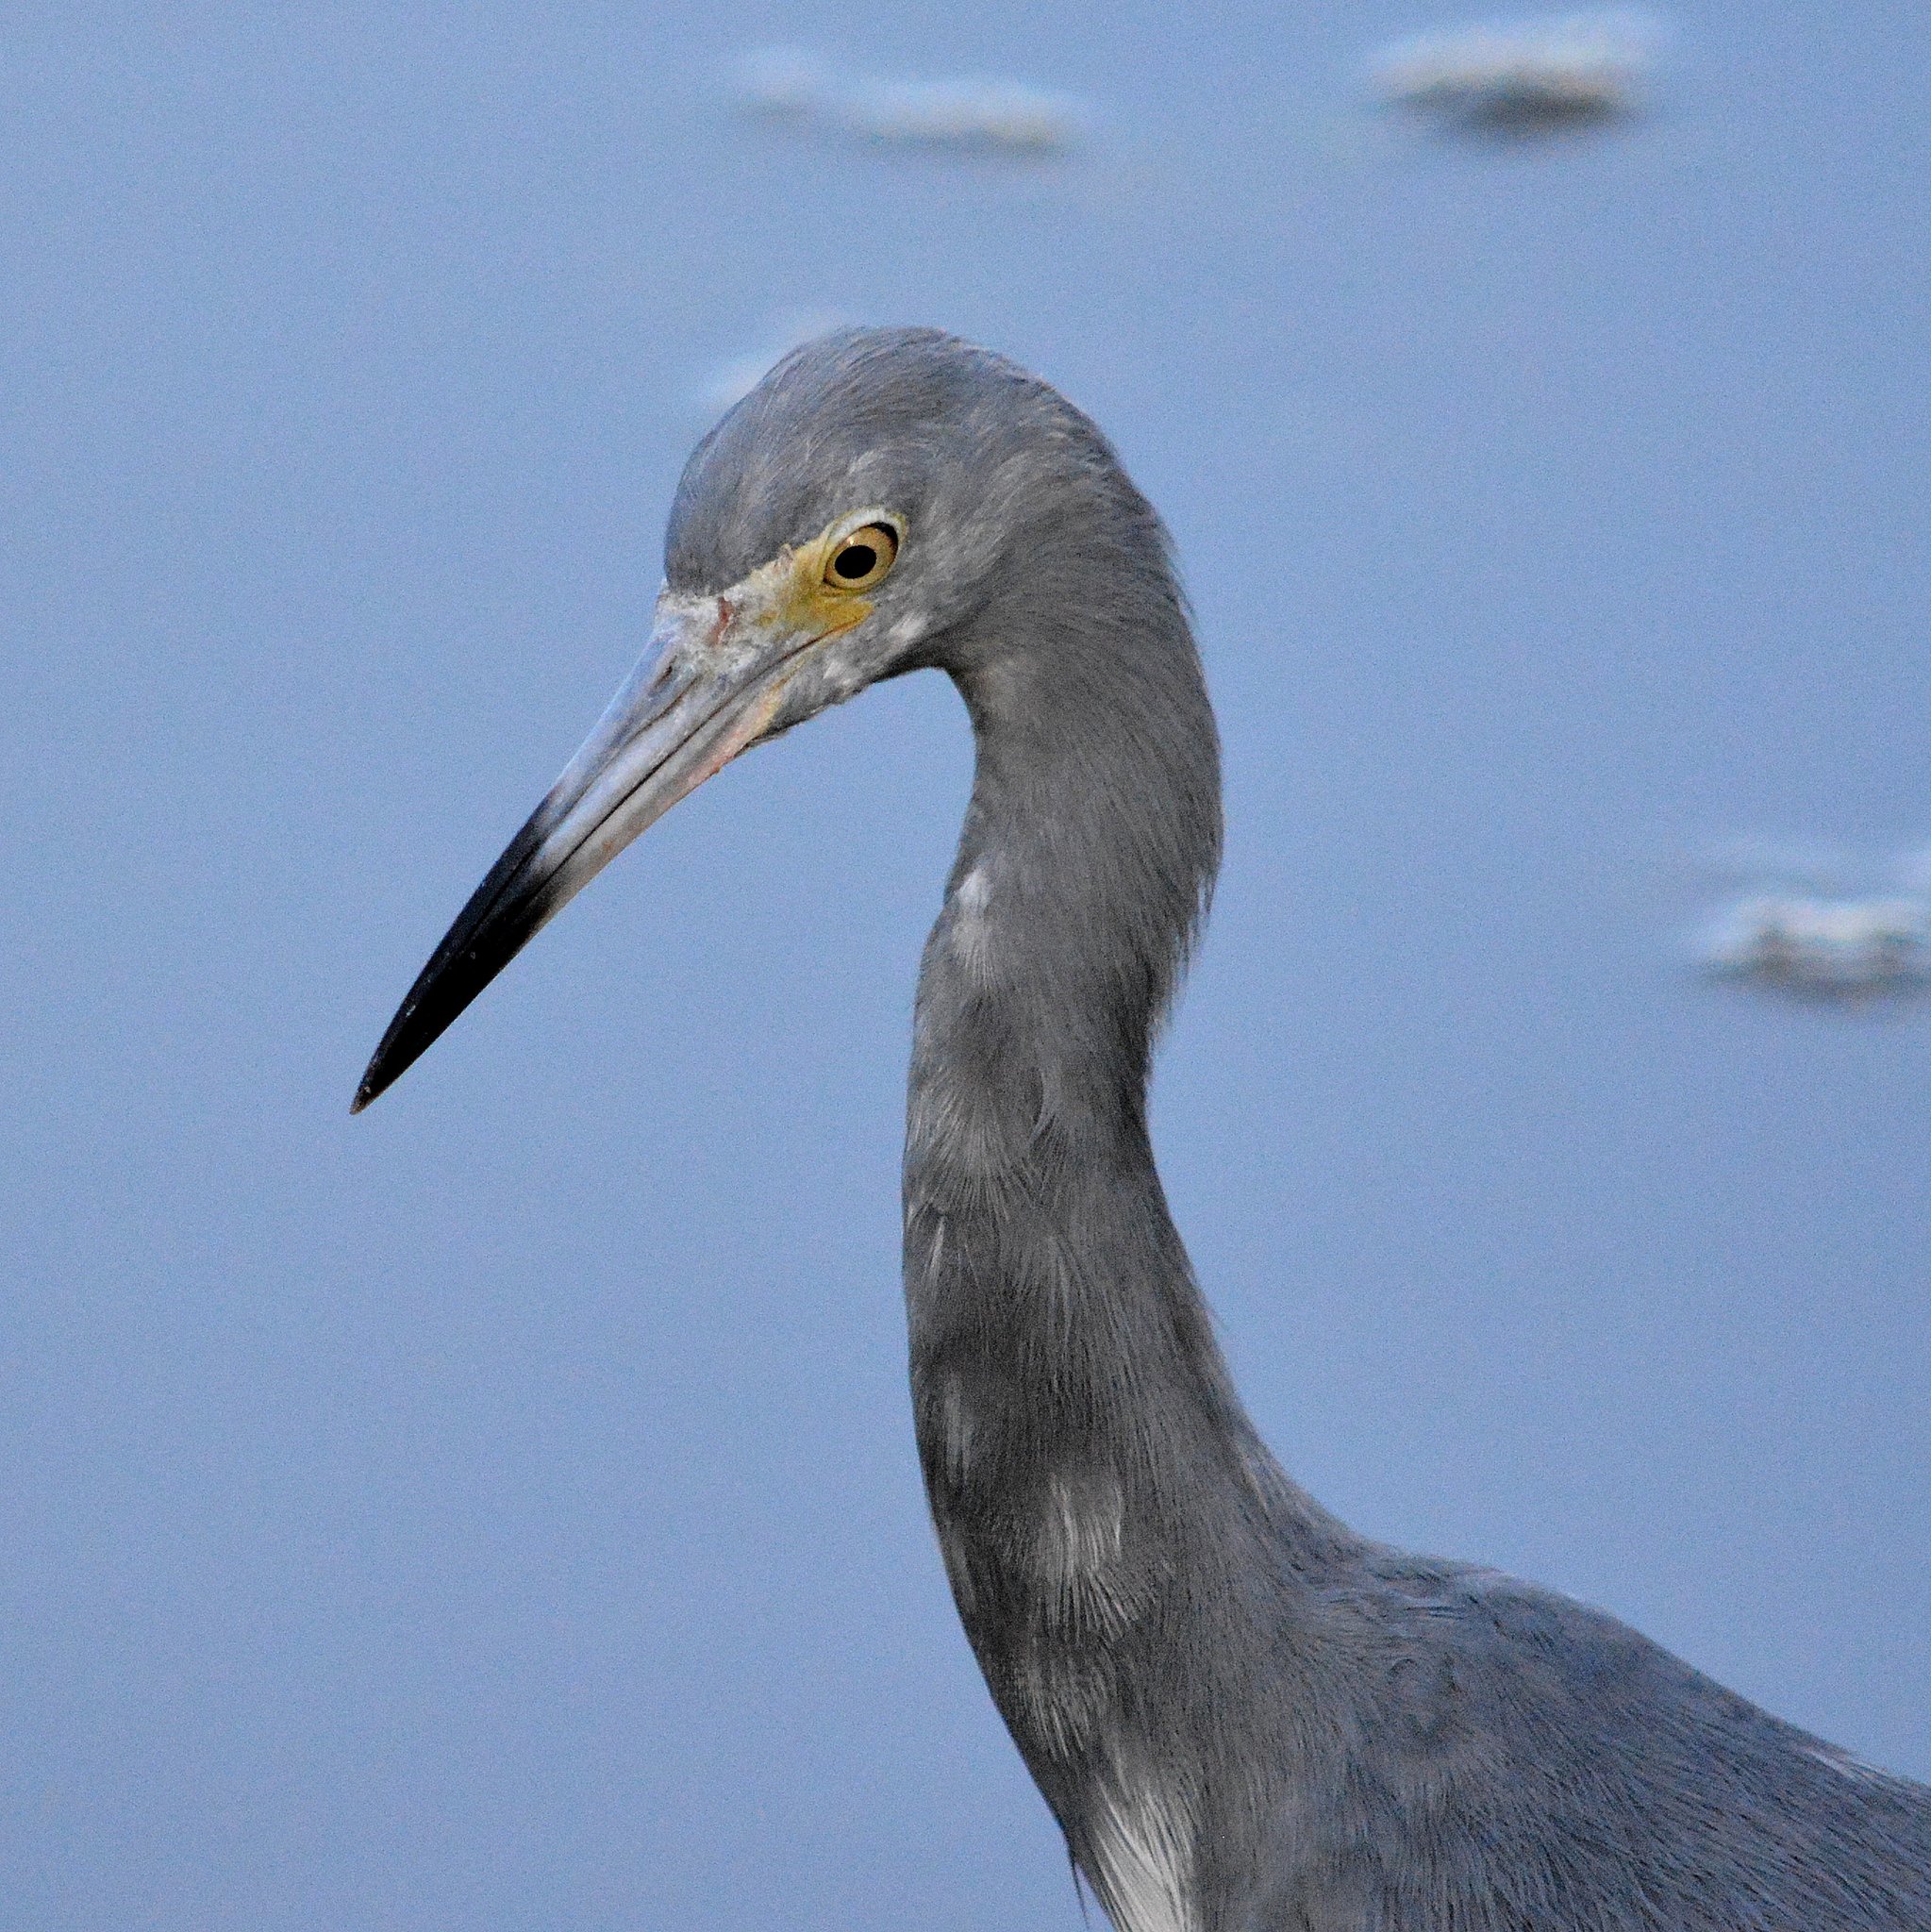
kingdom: Animalia
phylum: Chordata
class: Aves
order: Pelecaniformes
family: Ardeidae
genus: Egretta
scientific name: Egretta caerulea
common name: Little blue heron
